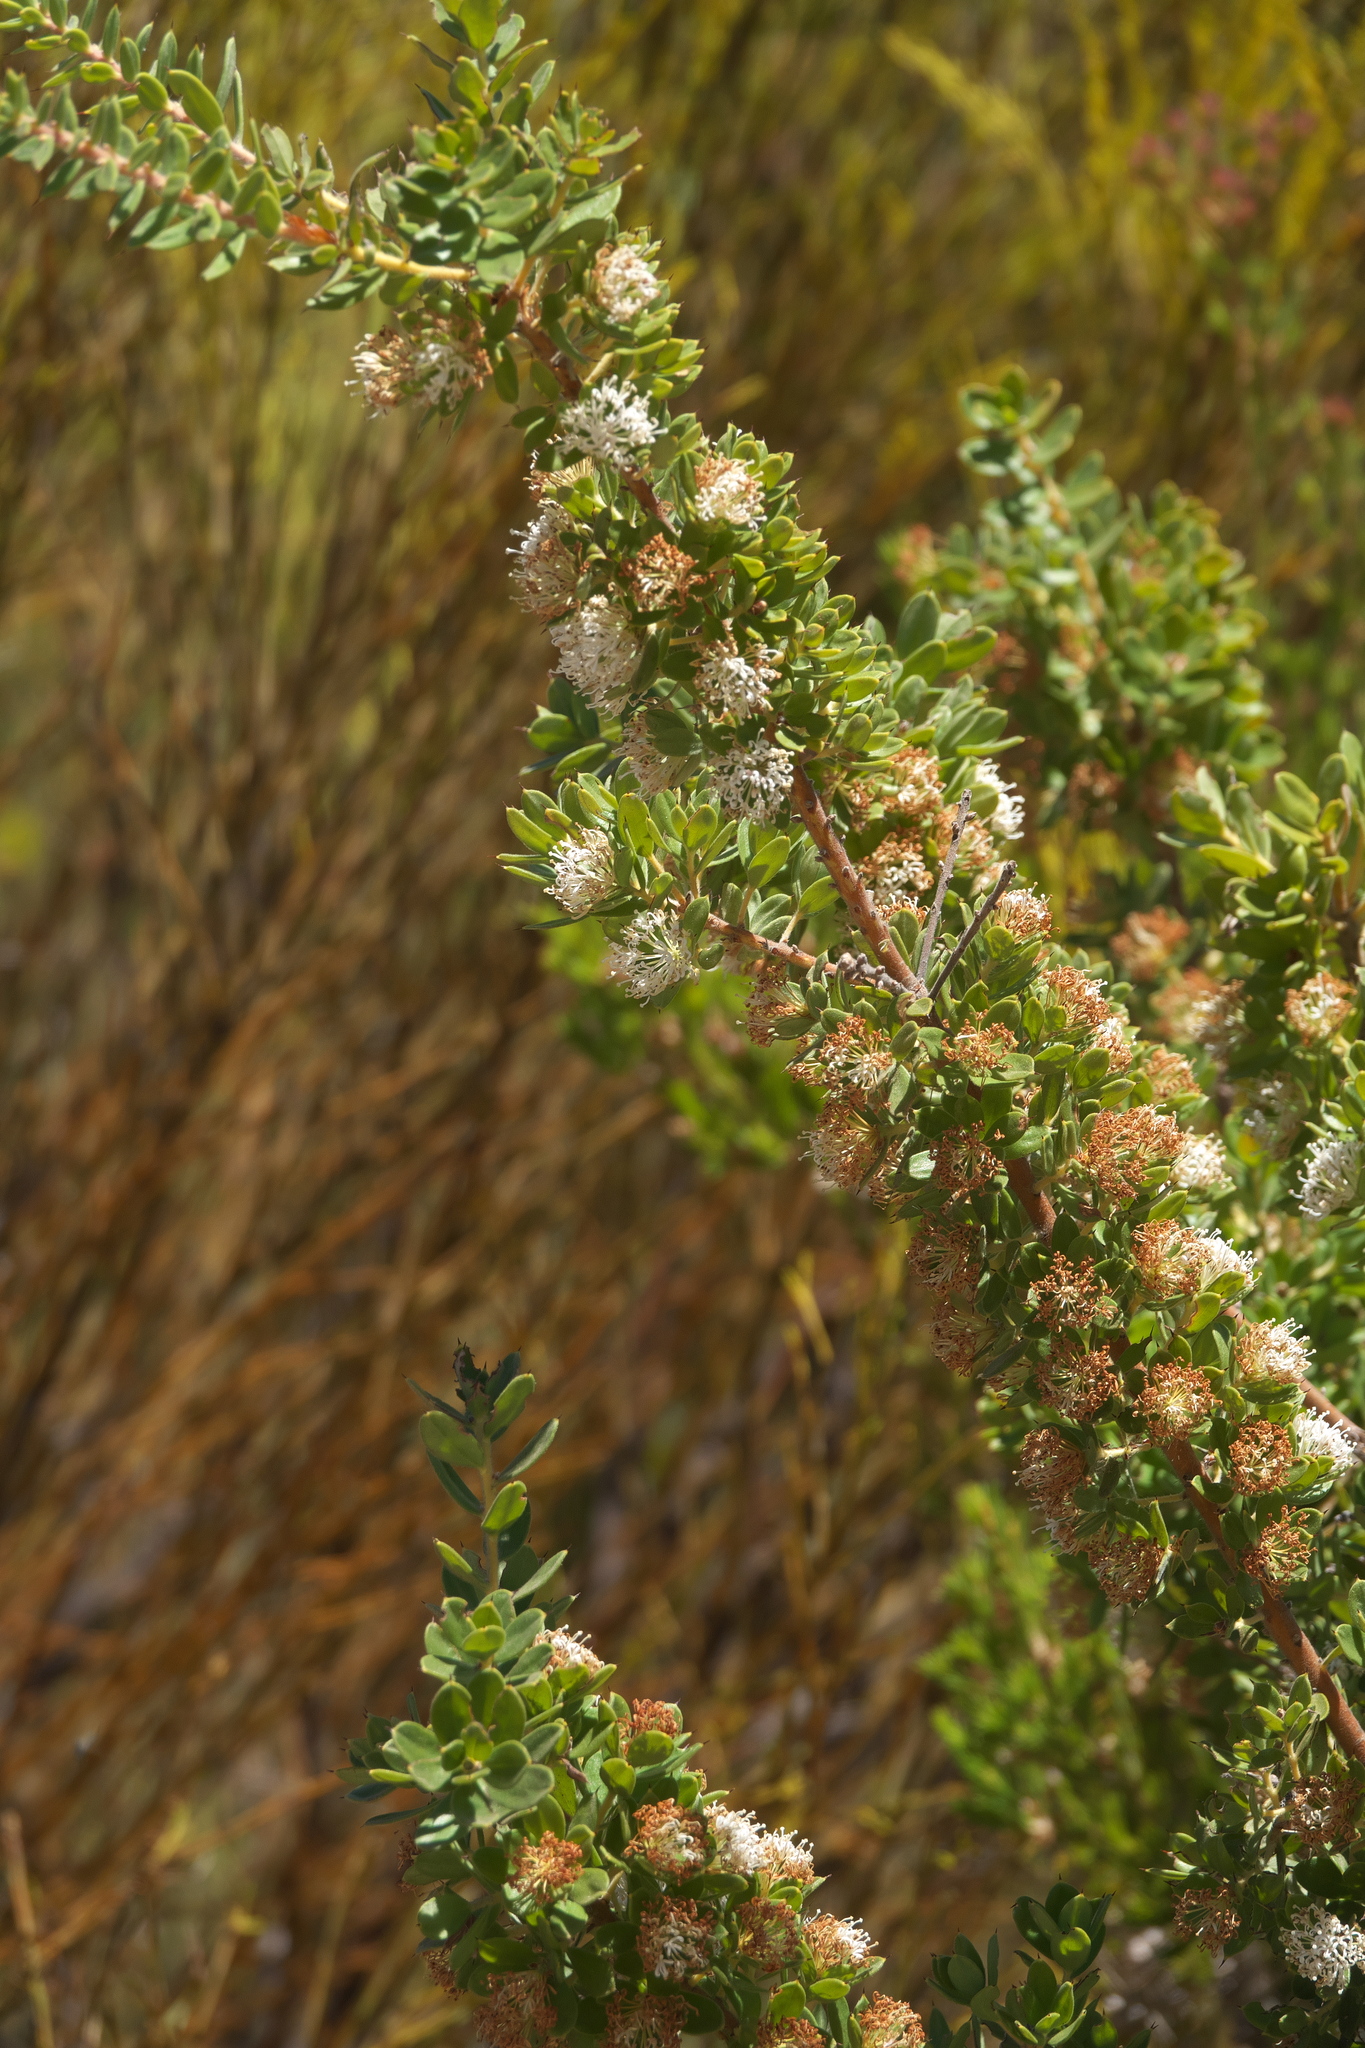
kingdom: Plantae
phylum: Tracheophyta
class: Magnoliopsida
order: Proteales
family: Proteaceae
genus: Hakea
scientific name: Hakea ruscifolia
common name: Candle hakea
